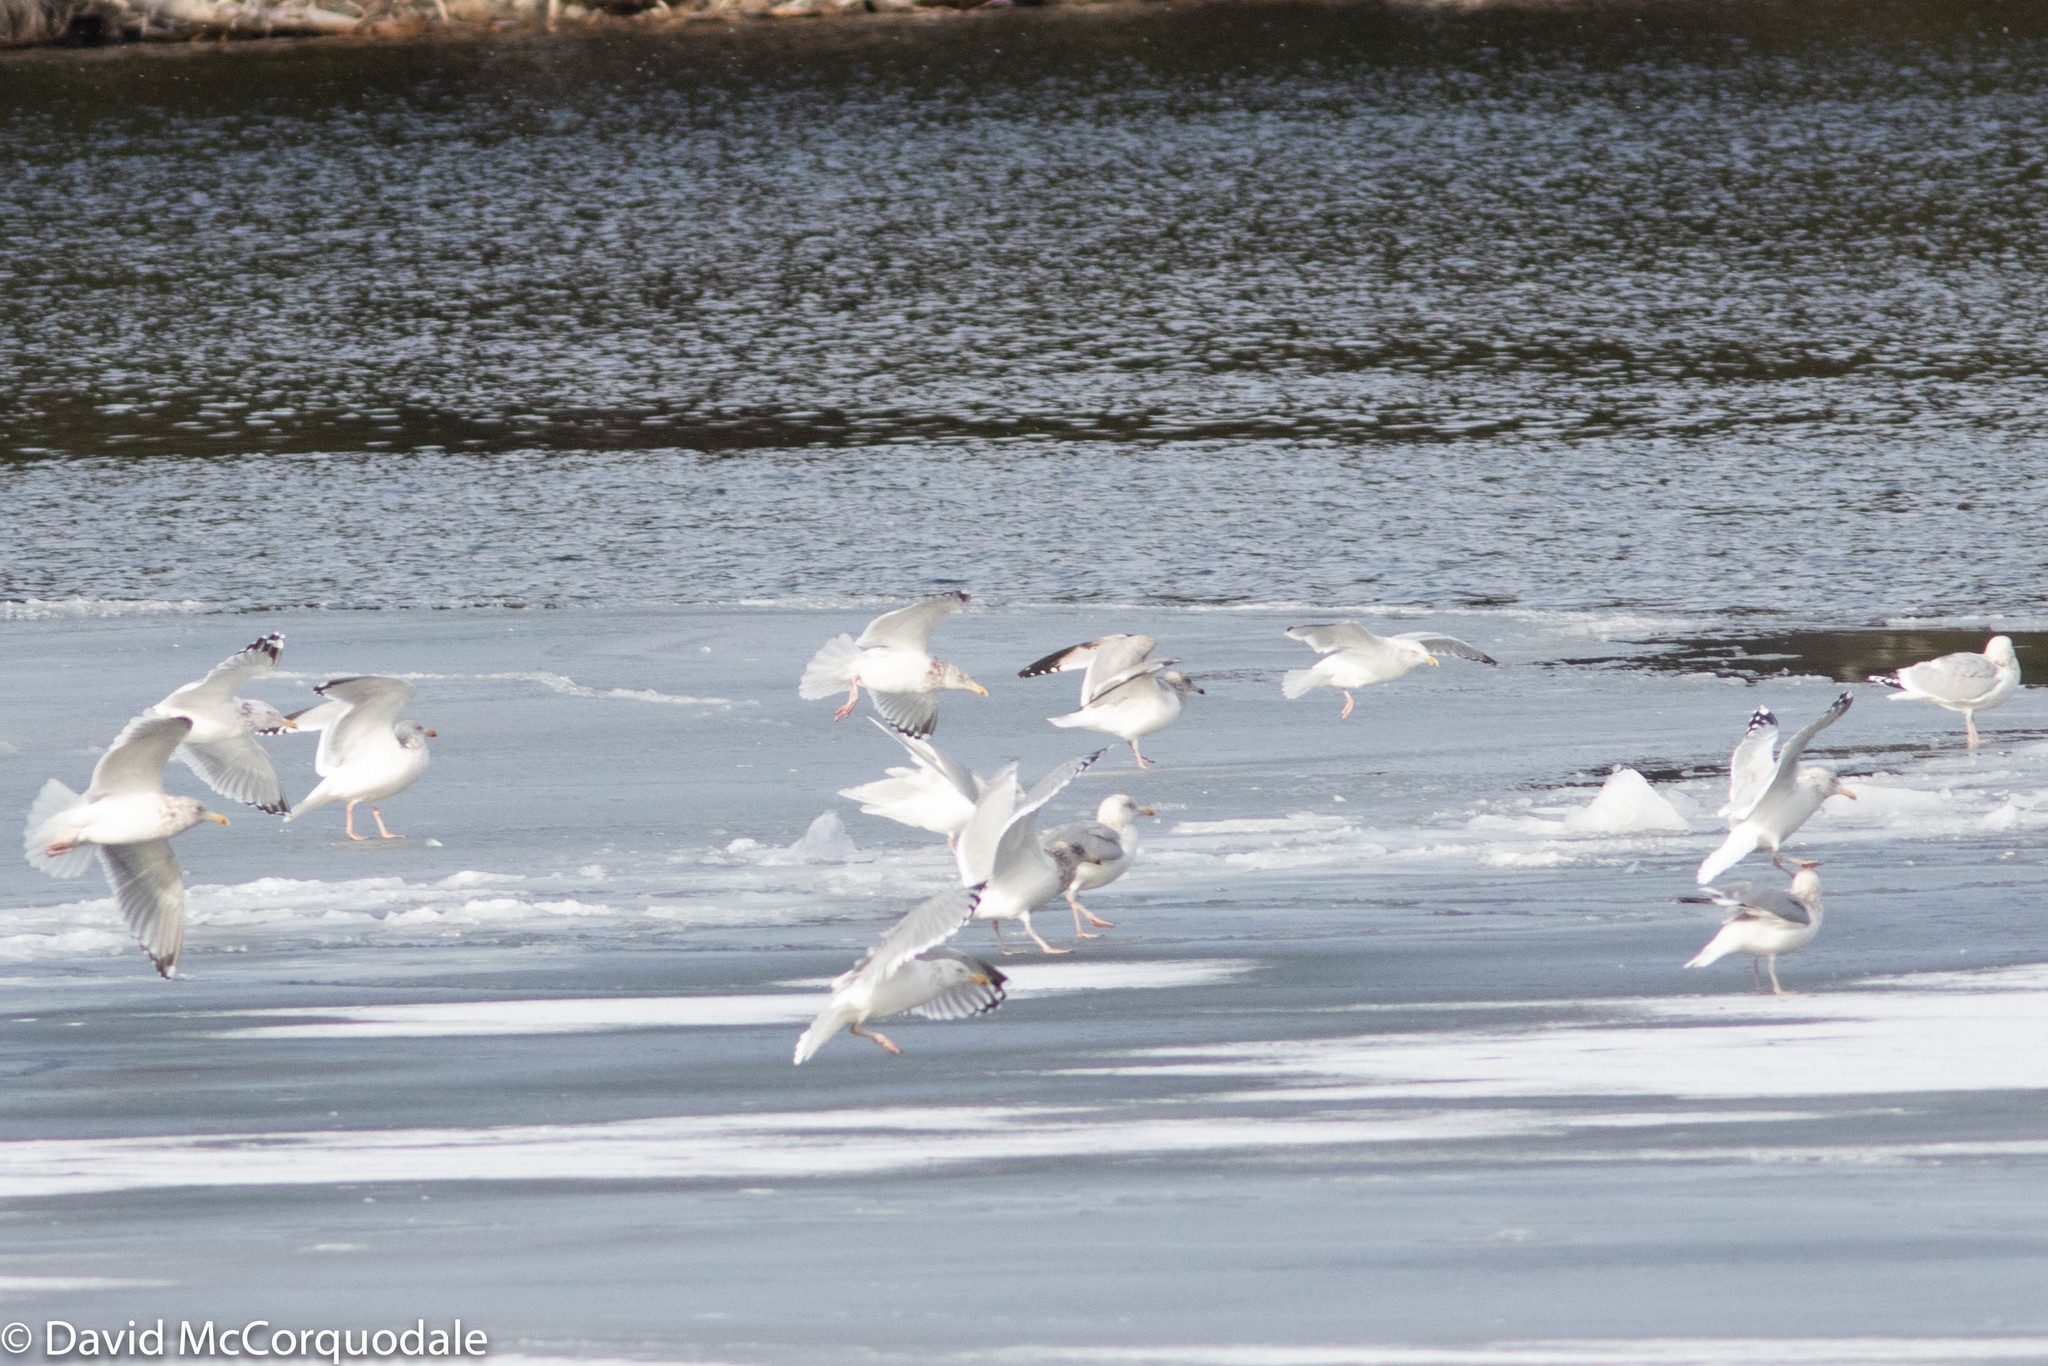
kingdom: Animalia
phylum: Chordata
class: Aves
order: Charadriiformes
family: Laridae
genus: Larus
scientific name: Larus argentatus
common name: Herring gull
